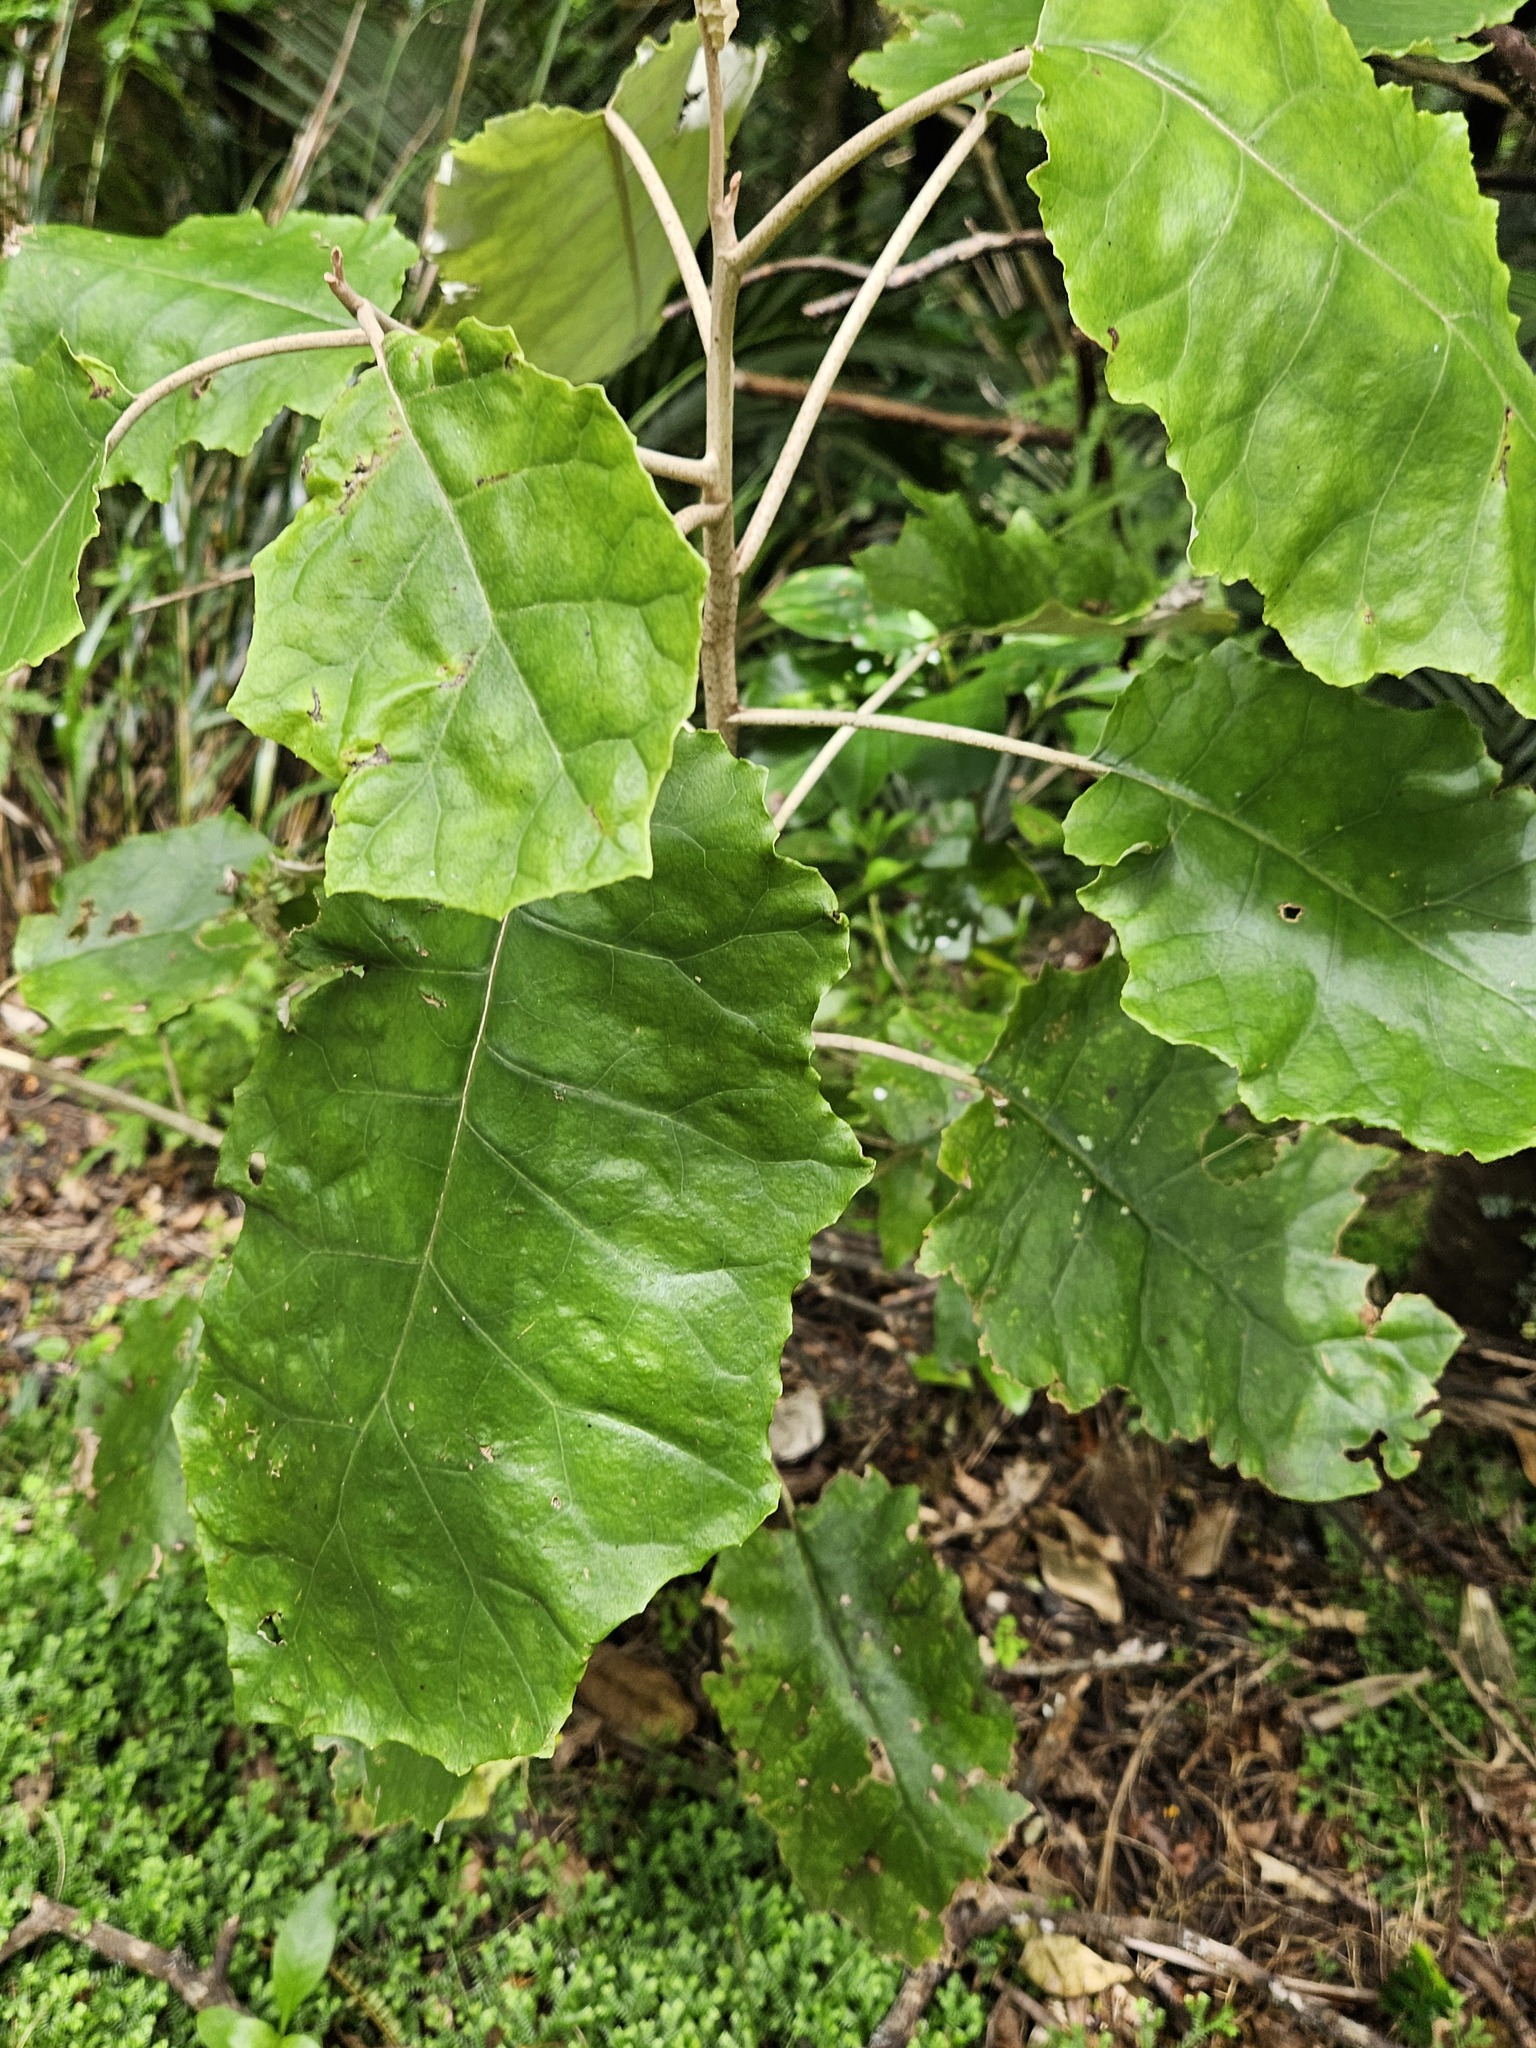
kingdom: Plantae
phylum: Tracheophyta
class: Magnoliopsida
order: Asterales
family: Asteraceae
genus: Brachyglottis
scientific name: Brachyglottis repanda
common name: Hedge ragwort
